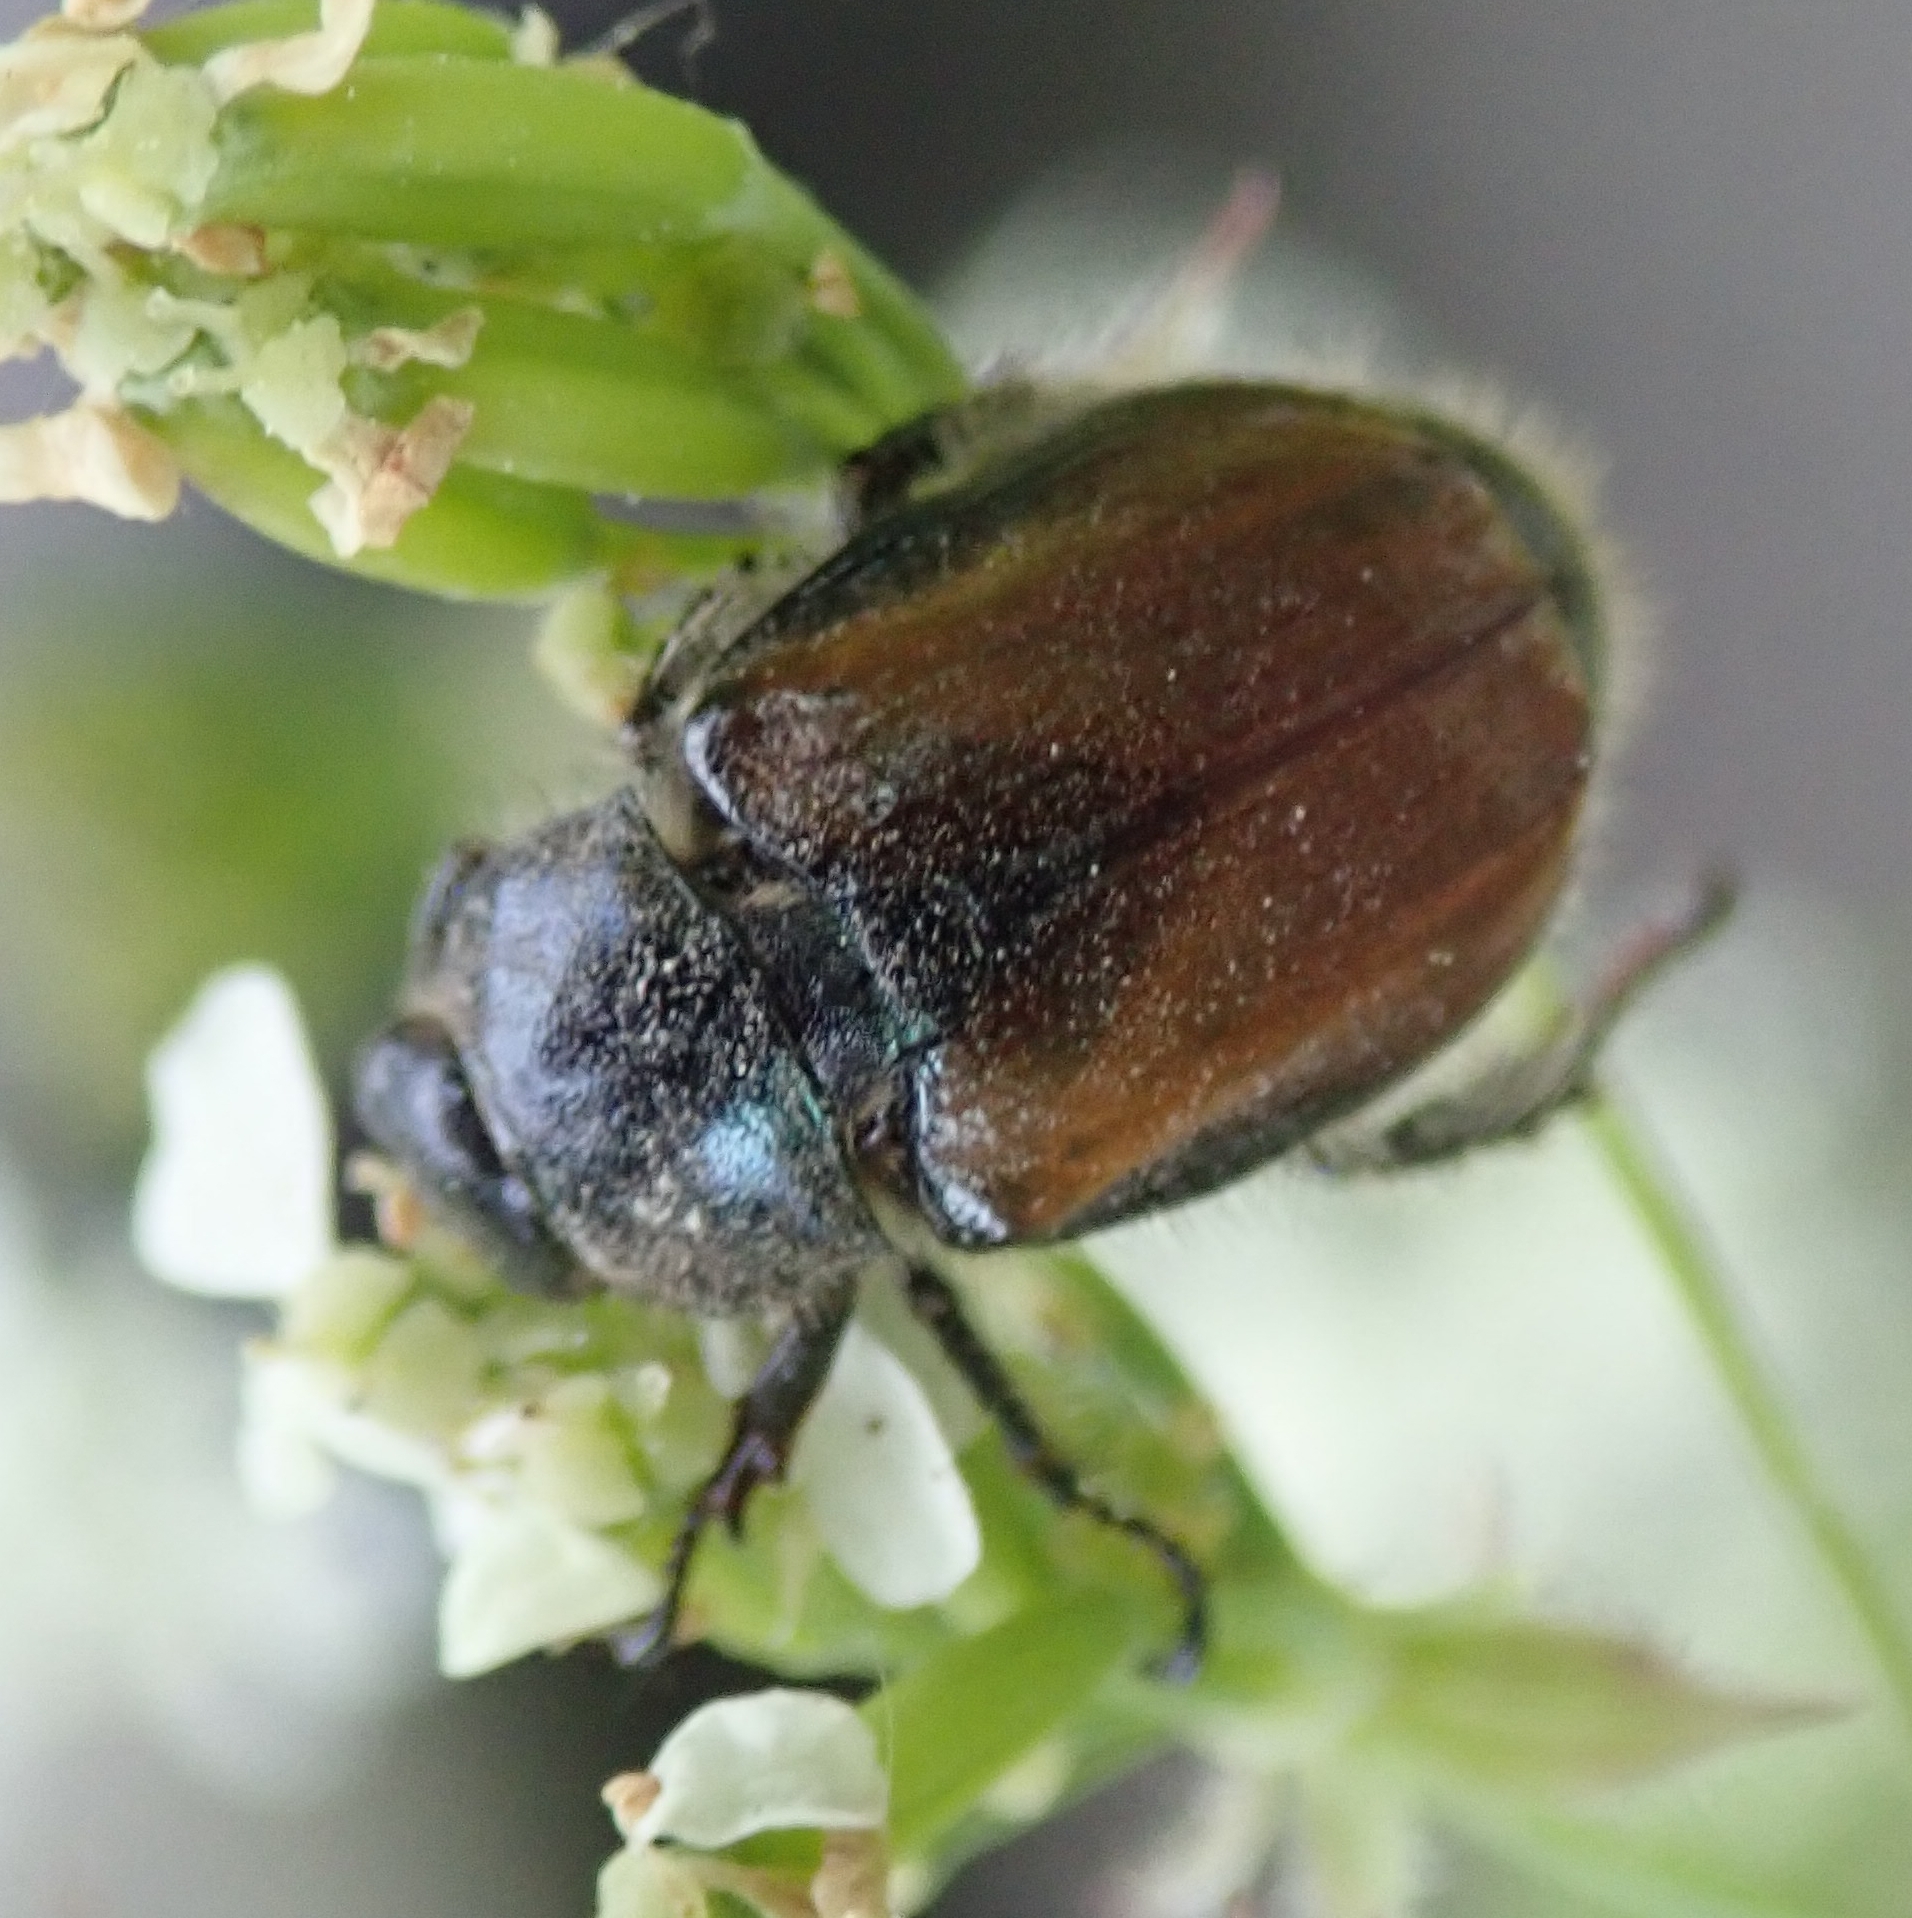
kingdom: Animalia
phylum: Arthropoda
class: Insecta
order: Coleoptera
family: Scarabaeidae
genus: Phyllopertha
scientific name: Phyllopertha horticola
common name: Garden chafer
